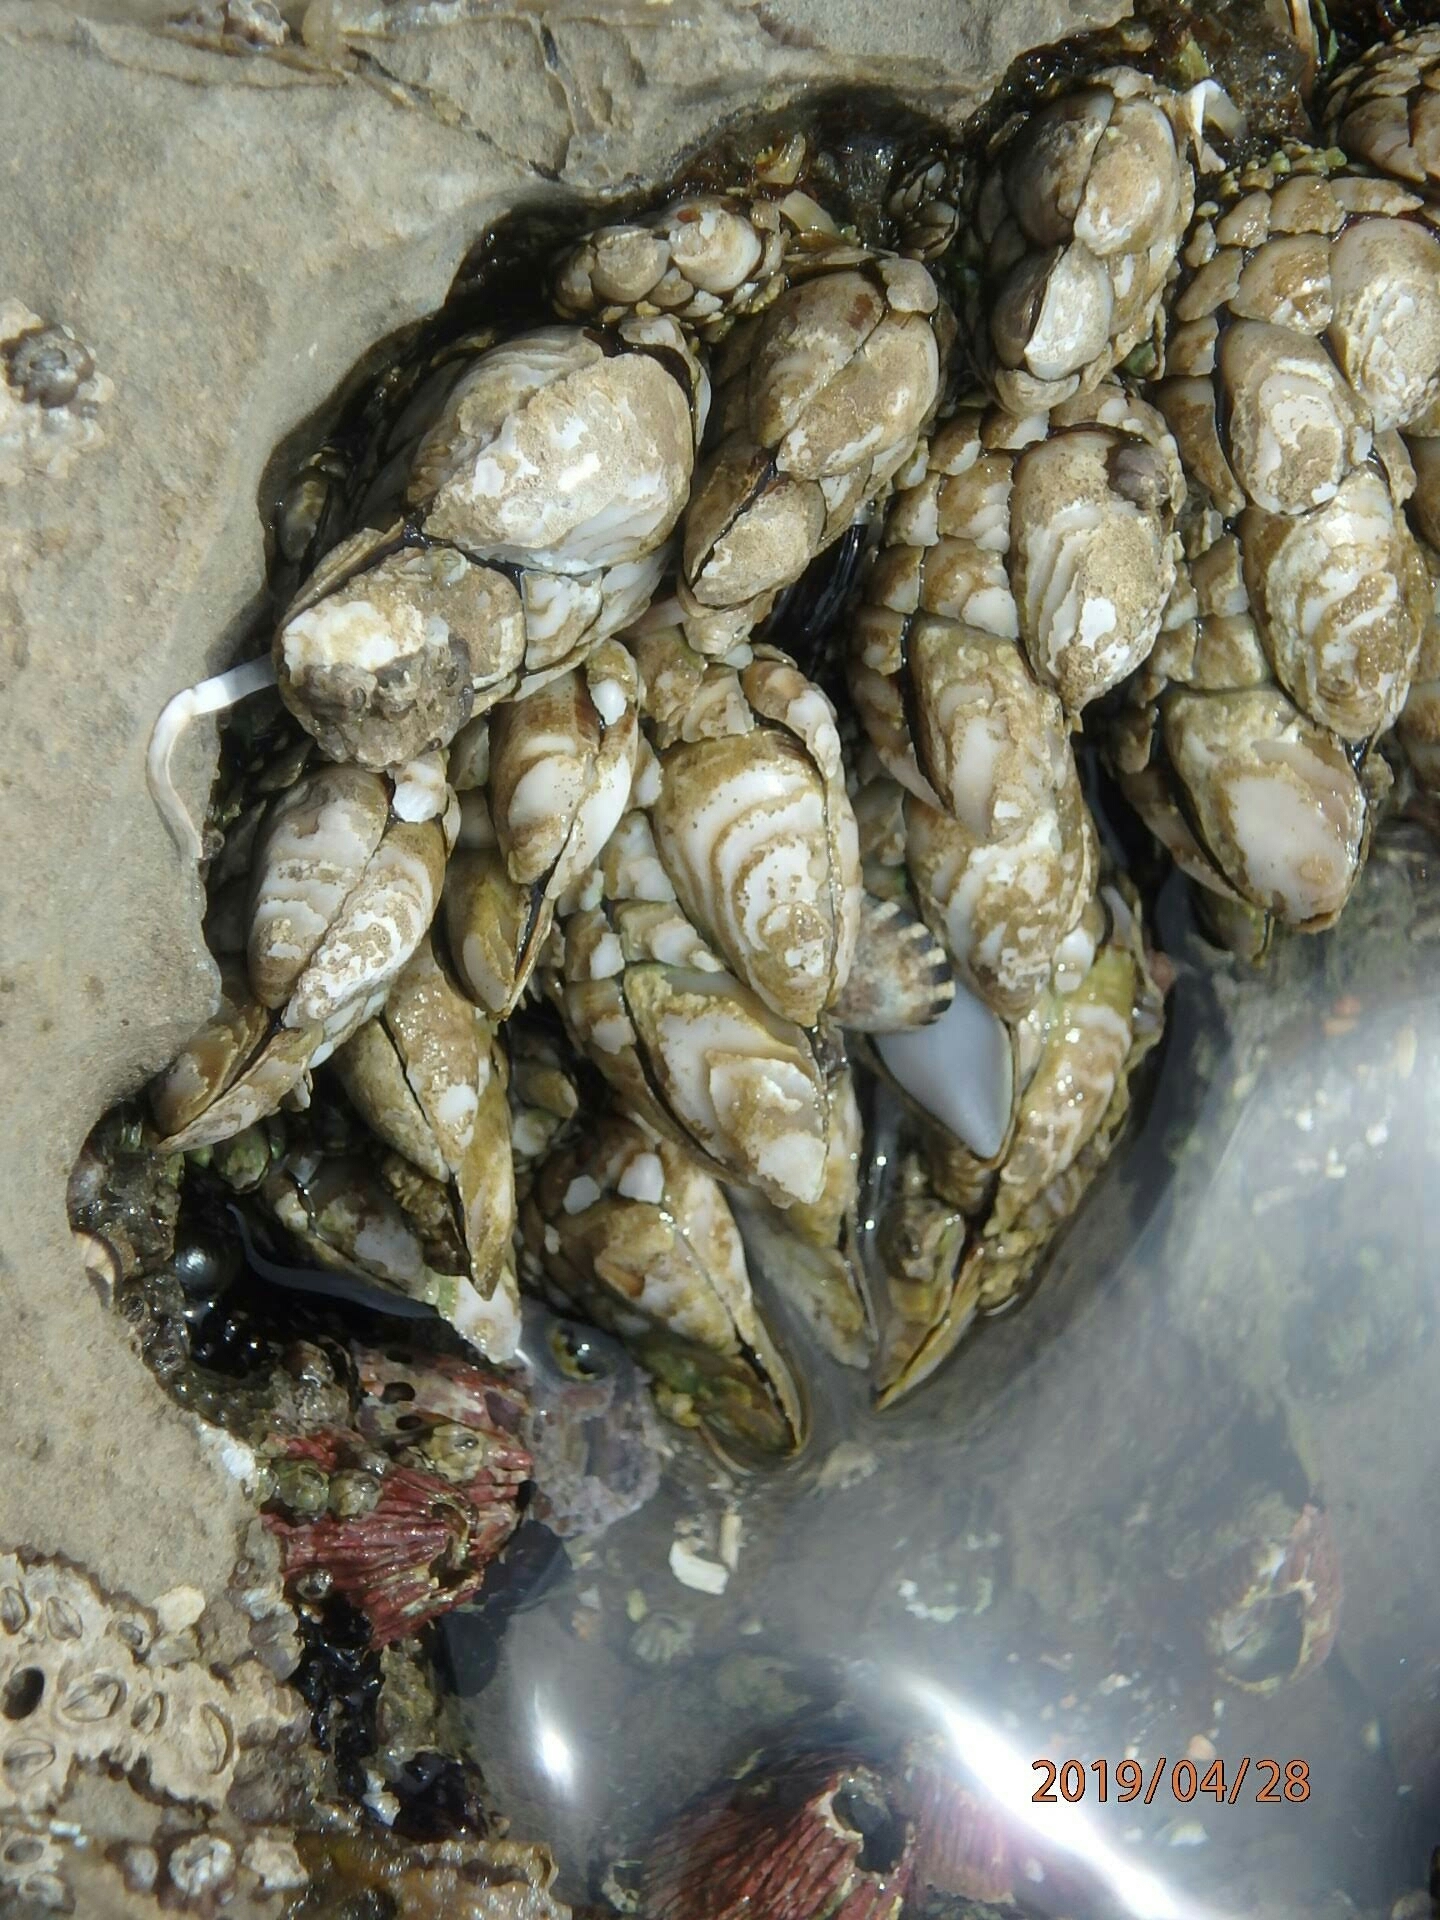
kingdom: Animalia
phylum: Arthropoda
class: Maxillopoda
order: Pedunculata
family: Pollicipedidae
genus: Pollicipes
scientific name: Pollicipes polymerus
